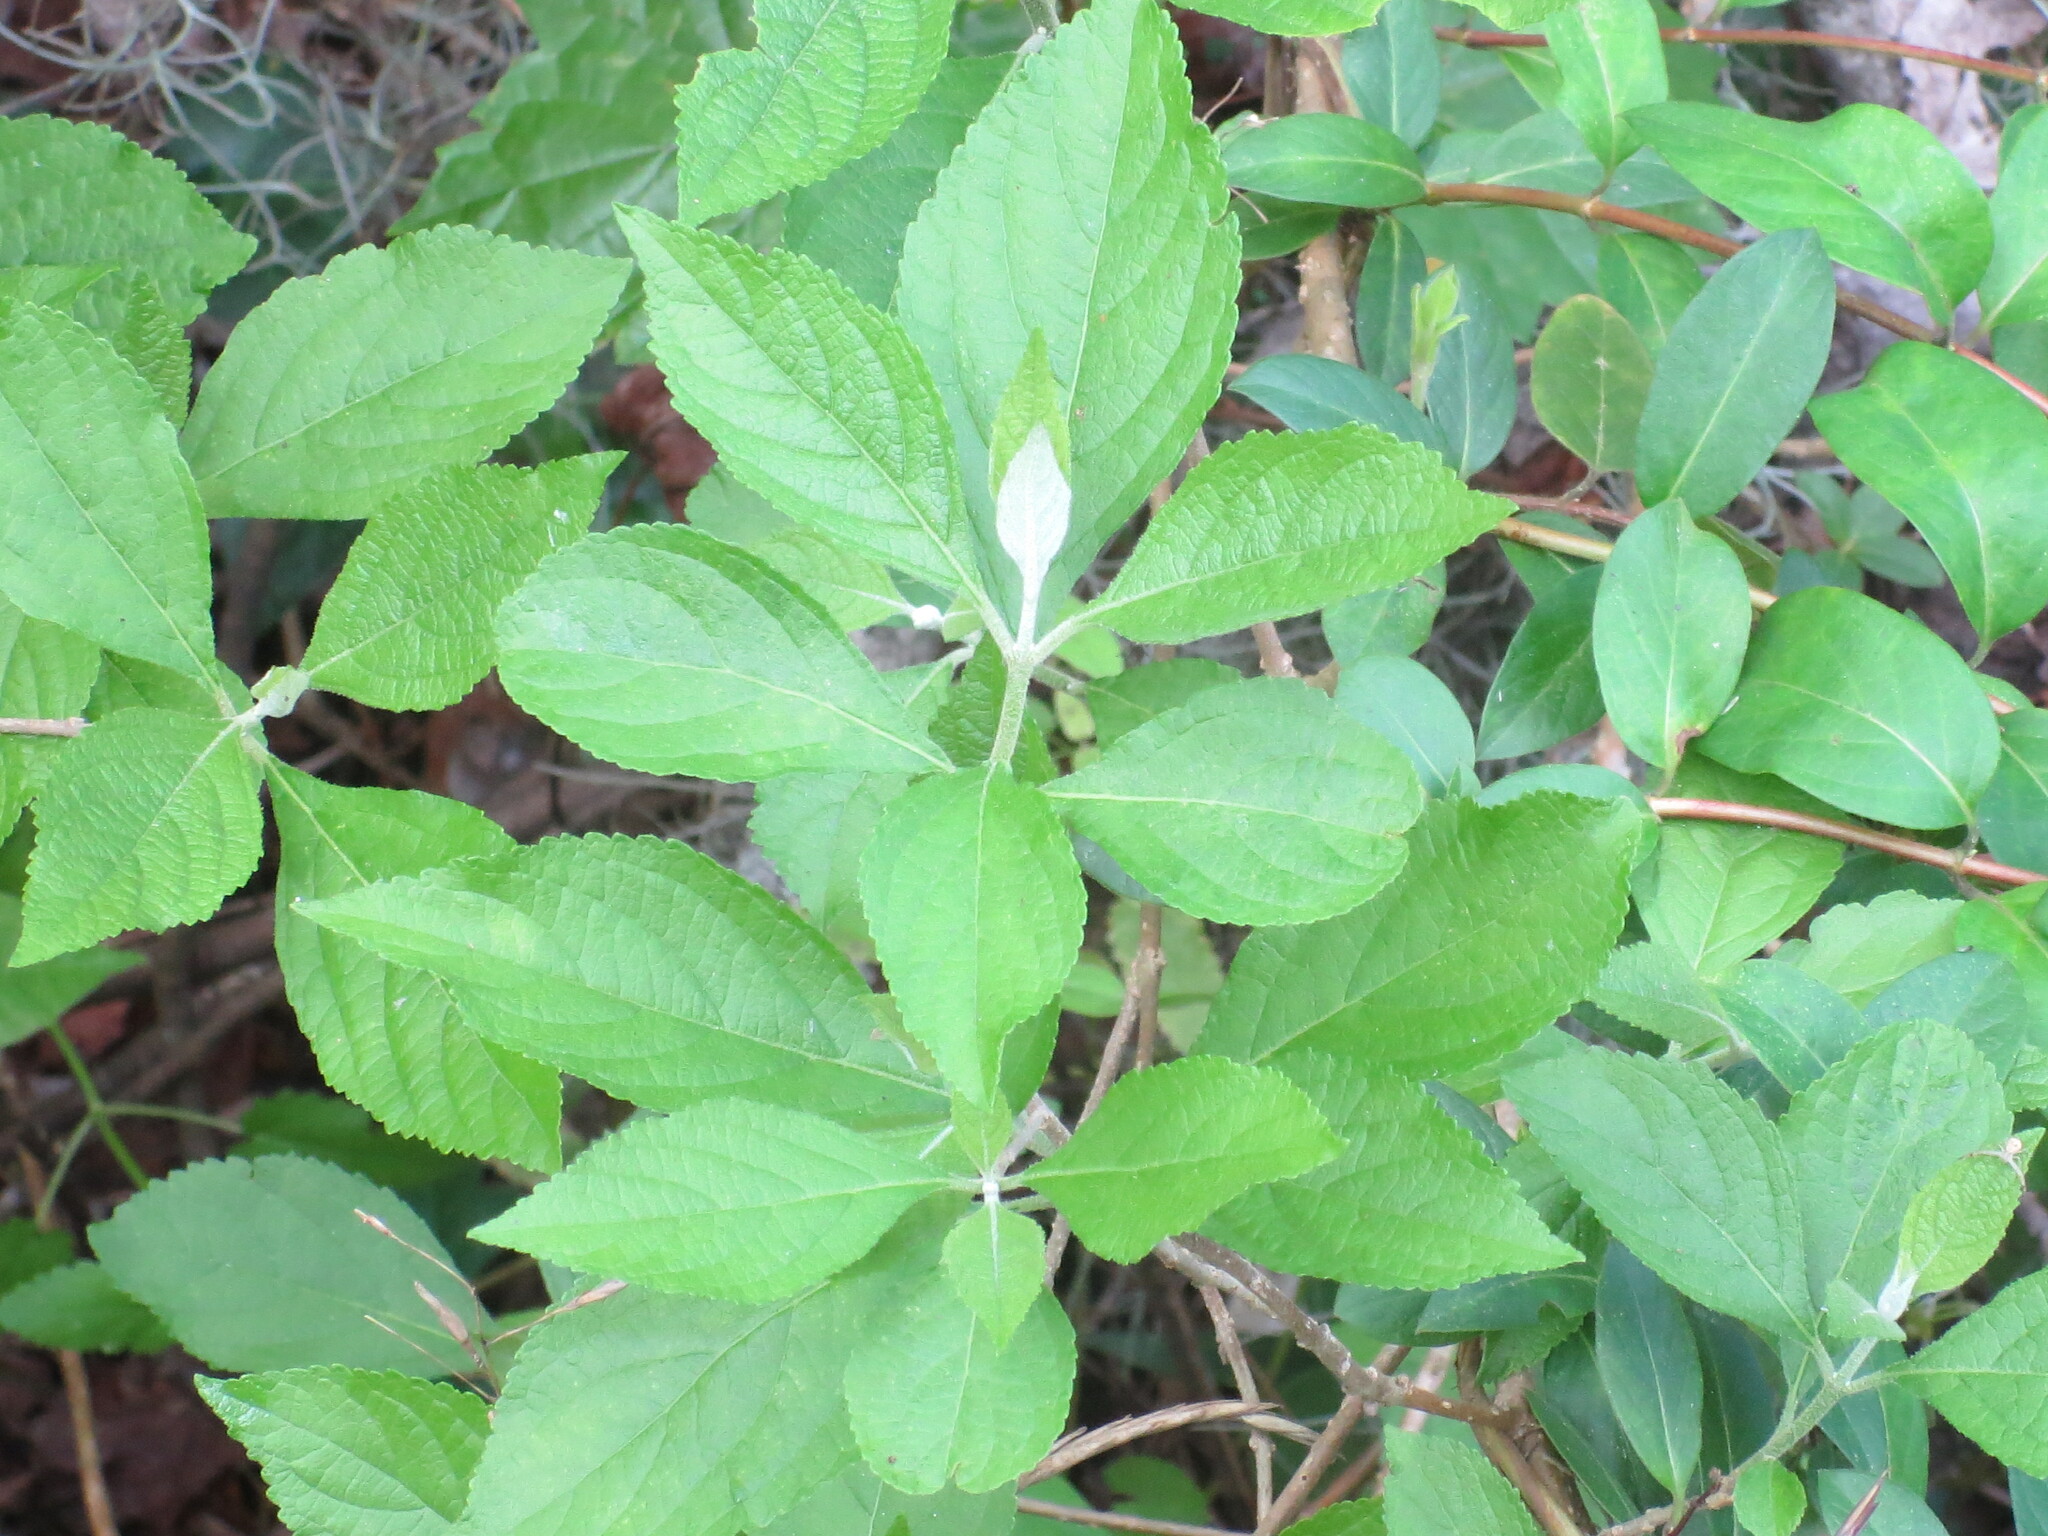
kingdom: Plantae
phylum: Tracheophyta
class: Magnoliopsida
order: Lamiales
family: Lamiaceae
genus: Callicarpa
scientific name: Callicarpa americana
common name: American beautyberry
